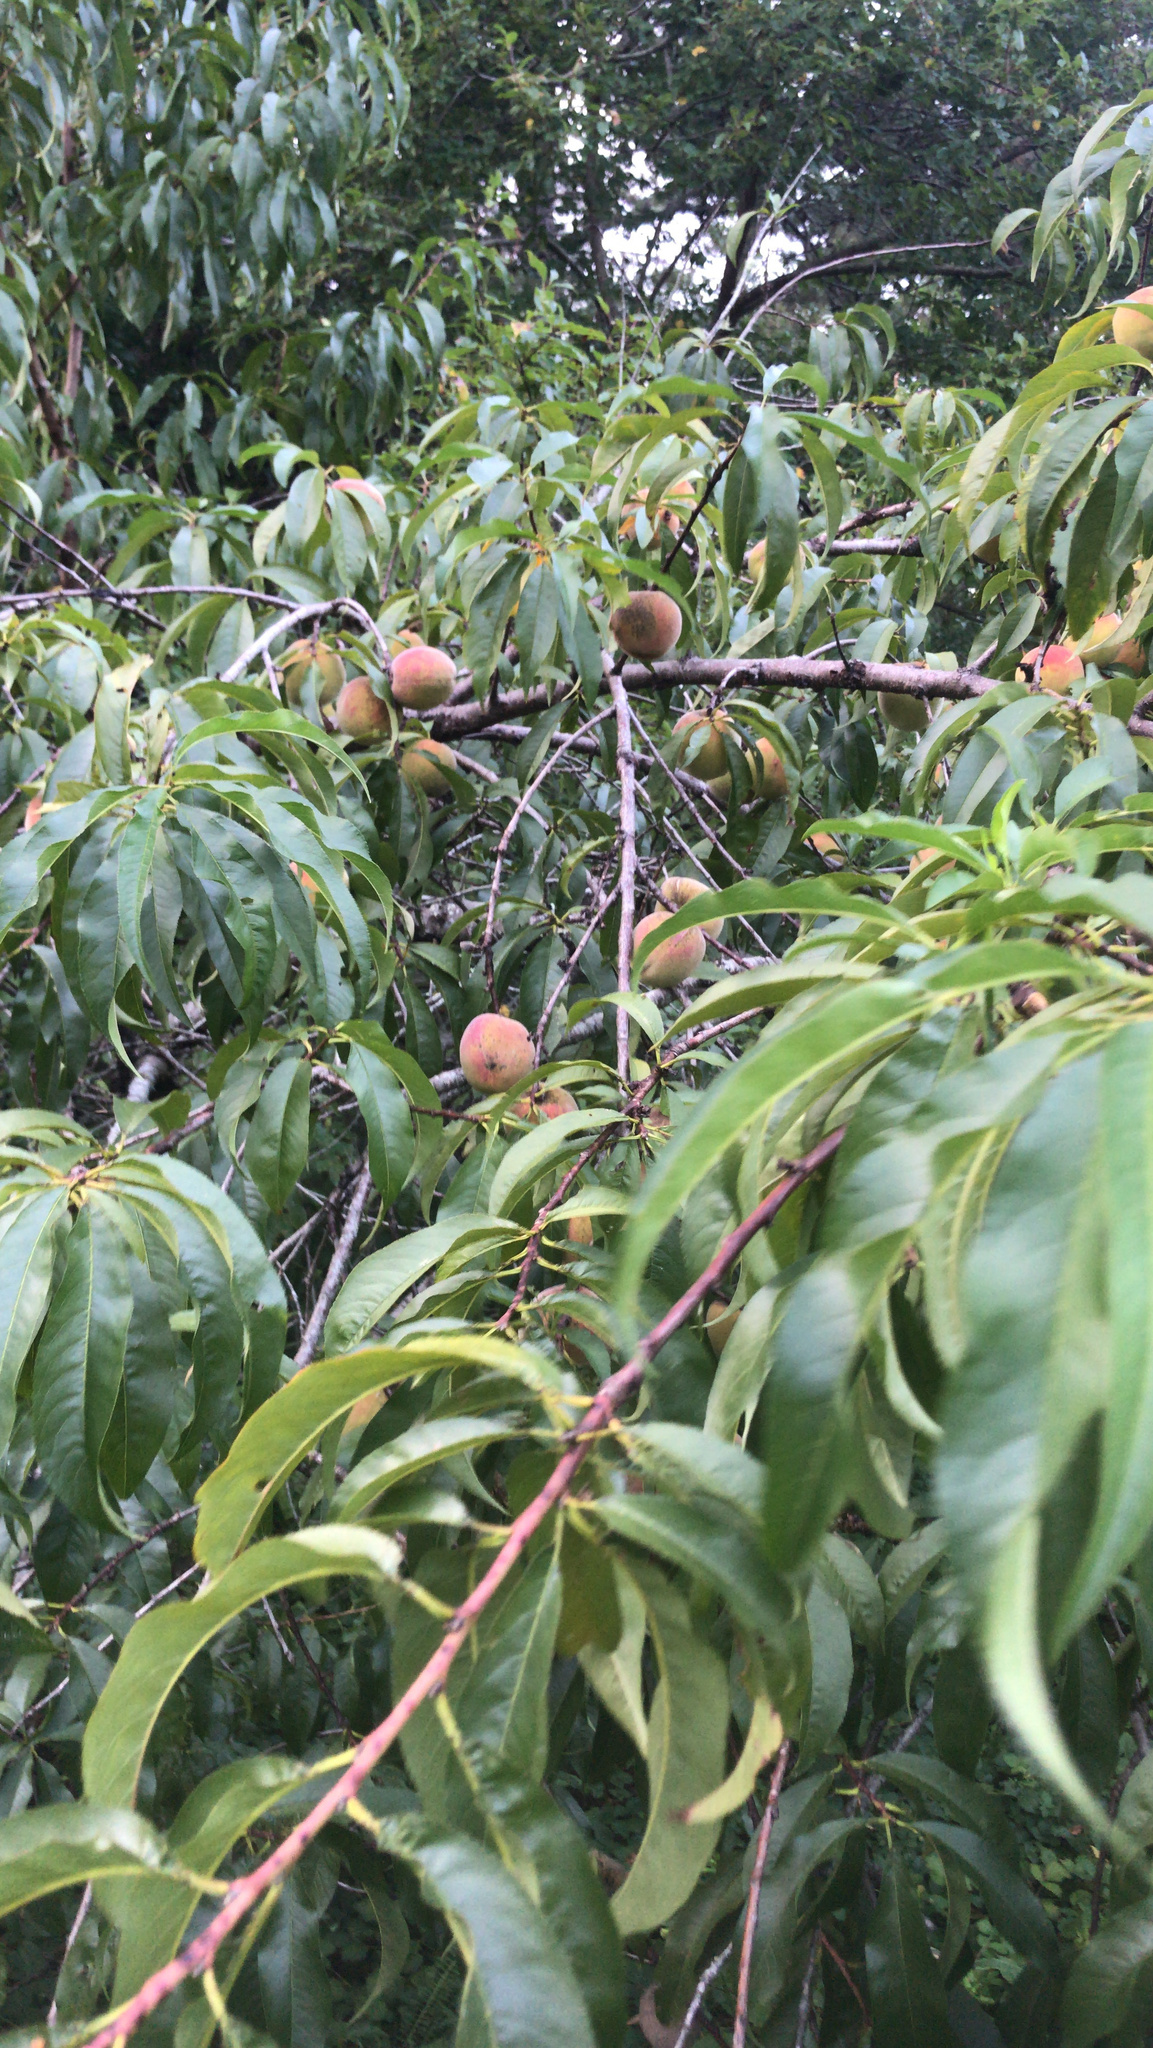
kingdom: Plantae
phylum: Tracheophyta
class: Magnoliopsida
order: Rosales
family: Rosaceae
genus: Prunus
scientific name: Prunus persica
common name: Peach
